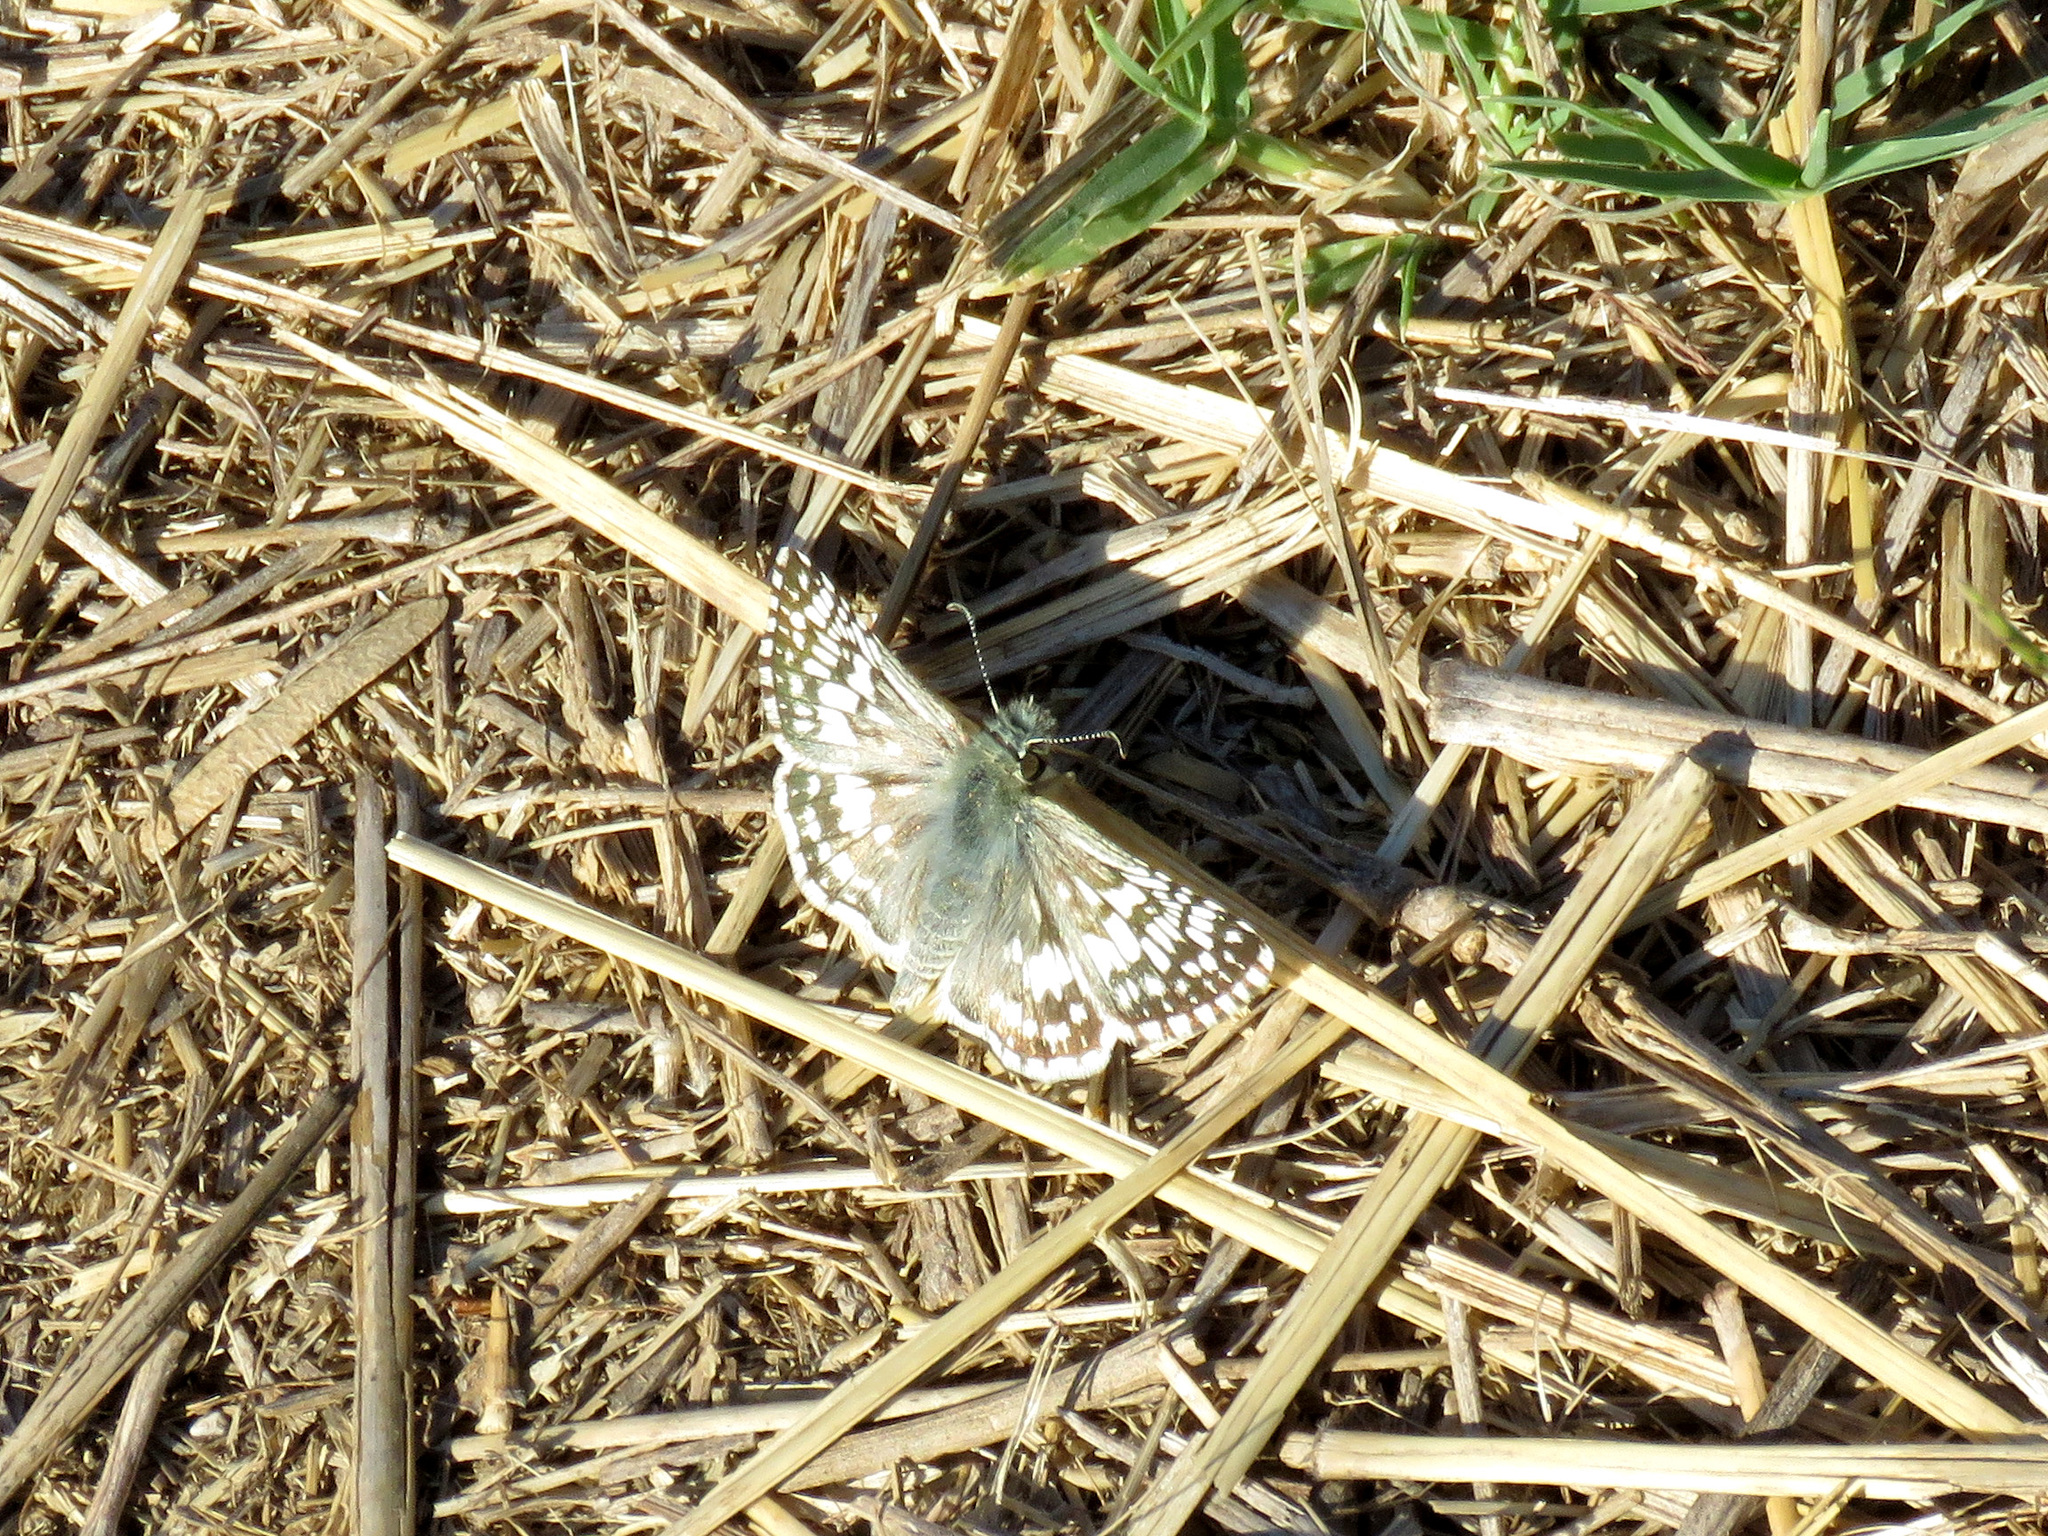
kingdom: Animalia
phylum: Arthropoda
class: Insecta
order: Lepidoptera
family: Hesperiidae
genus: Burnsius
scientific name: Burnsius
